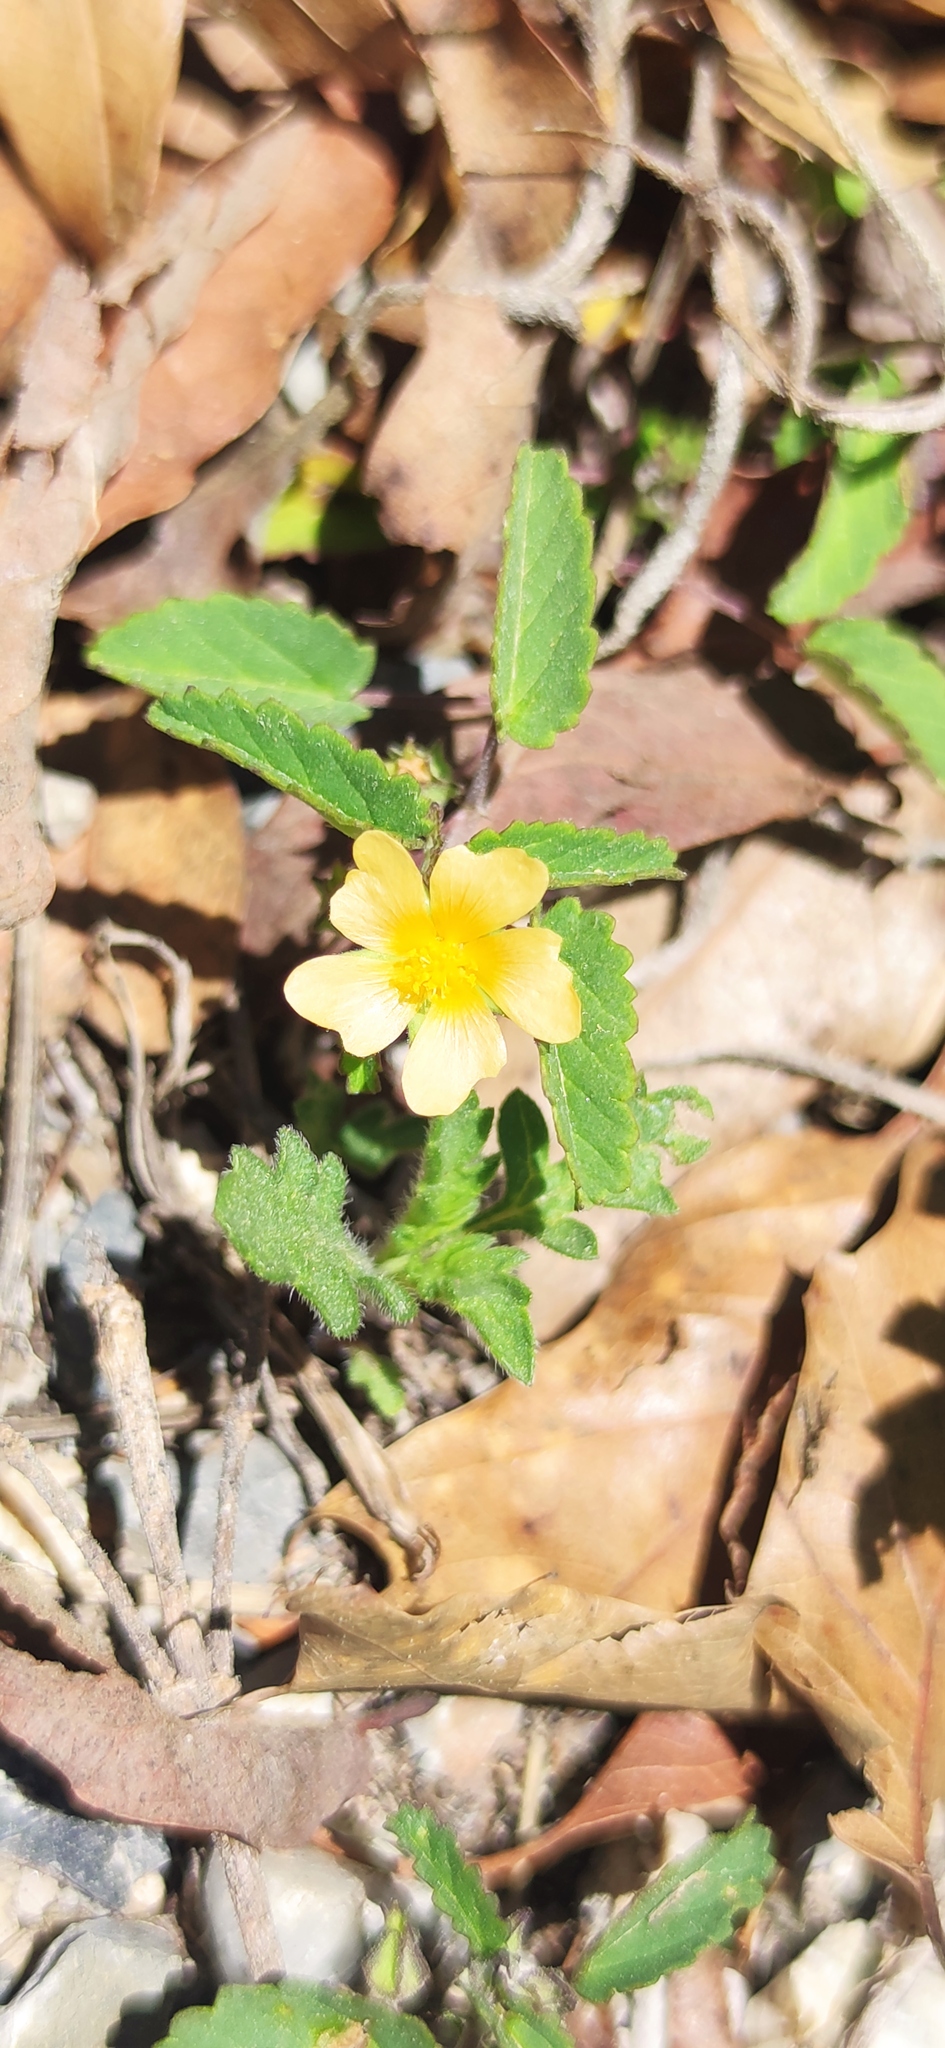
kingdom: Plantae
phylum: Tracheophyta
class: Magnoliopsida
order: Malvales
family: Malvaceae
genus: Sida
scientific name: Sida abutilifolia
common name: Spreading fanpetals
